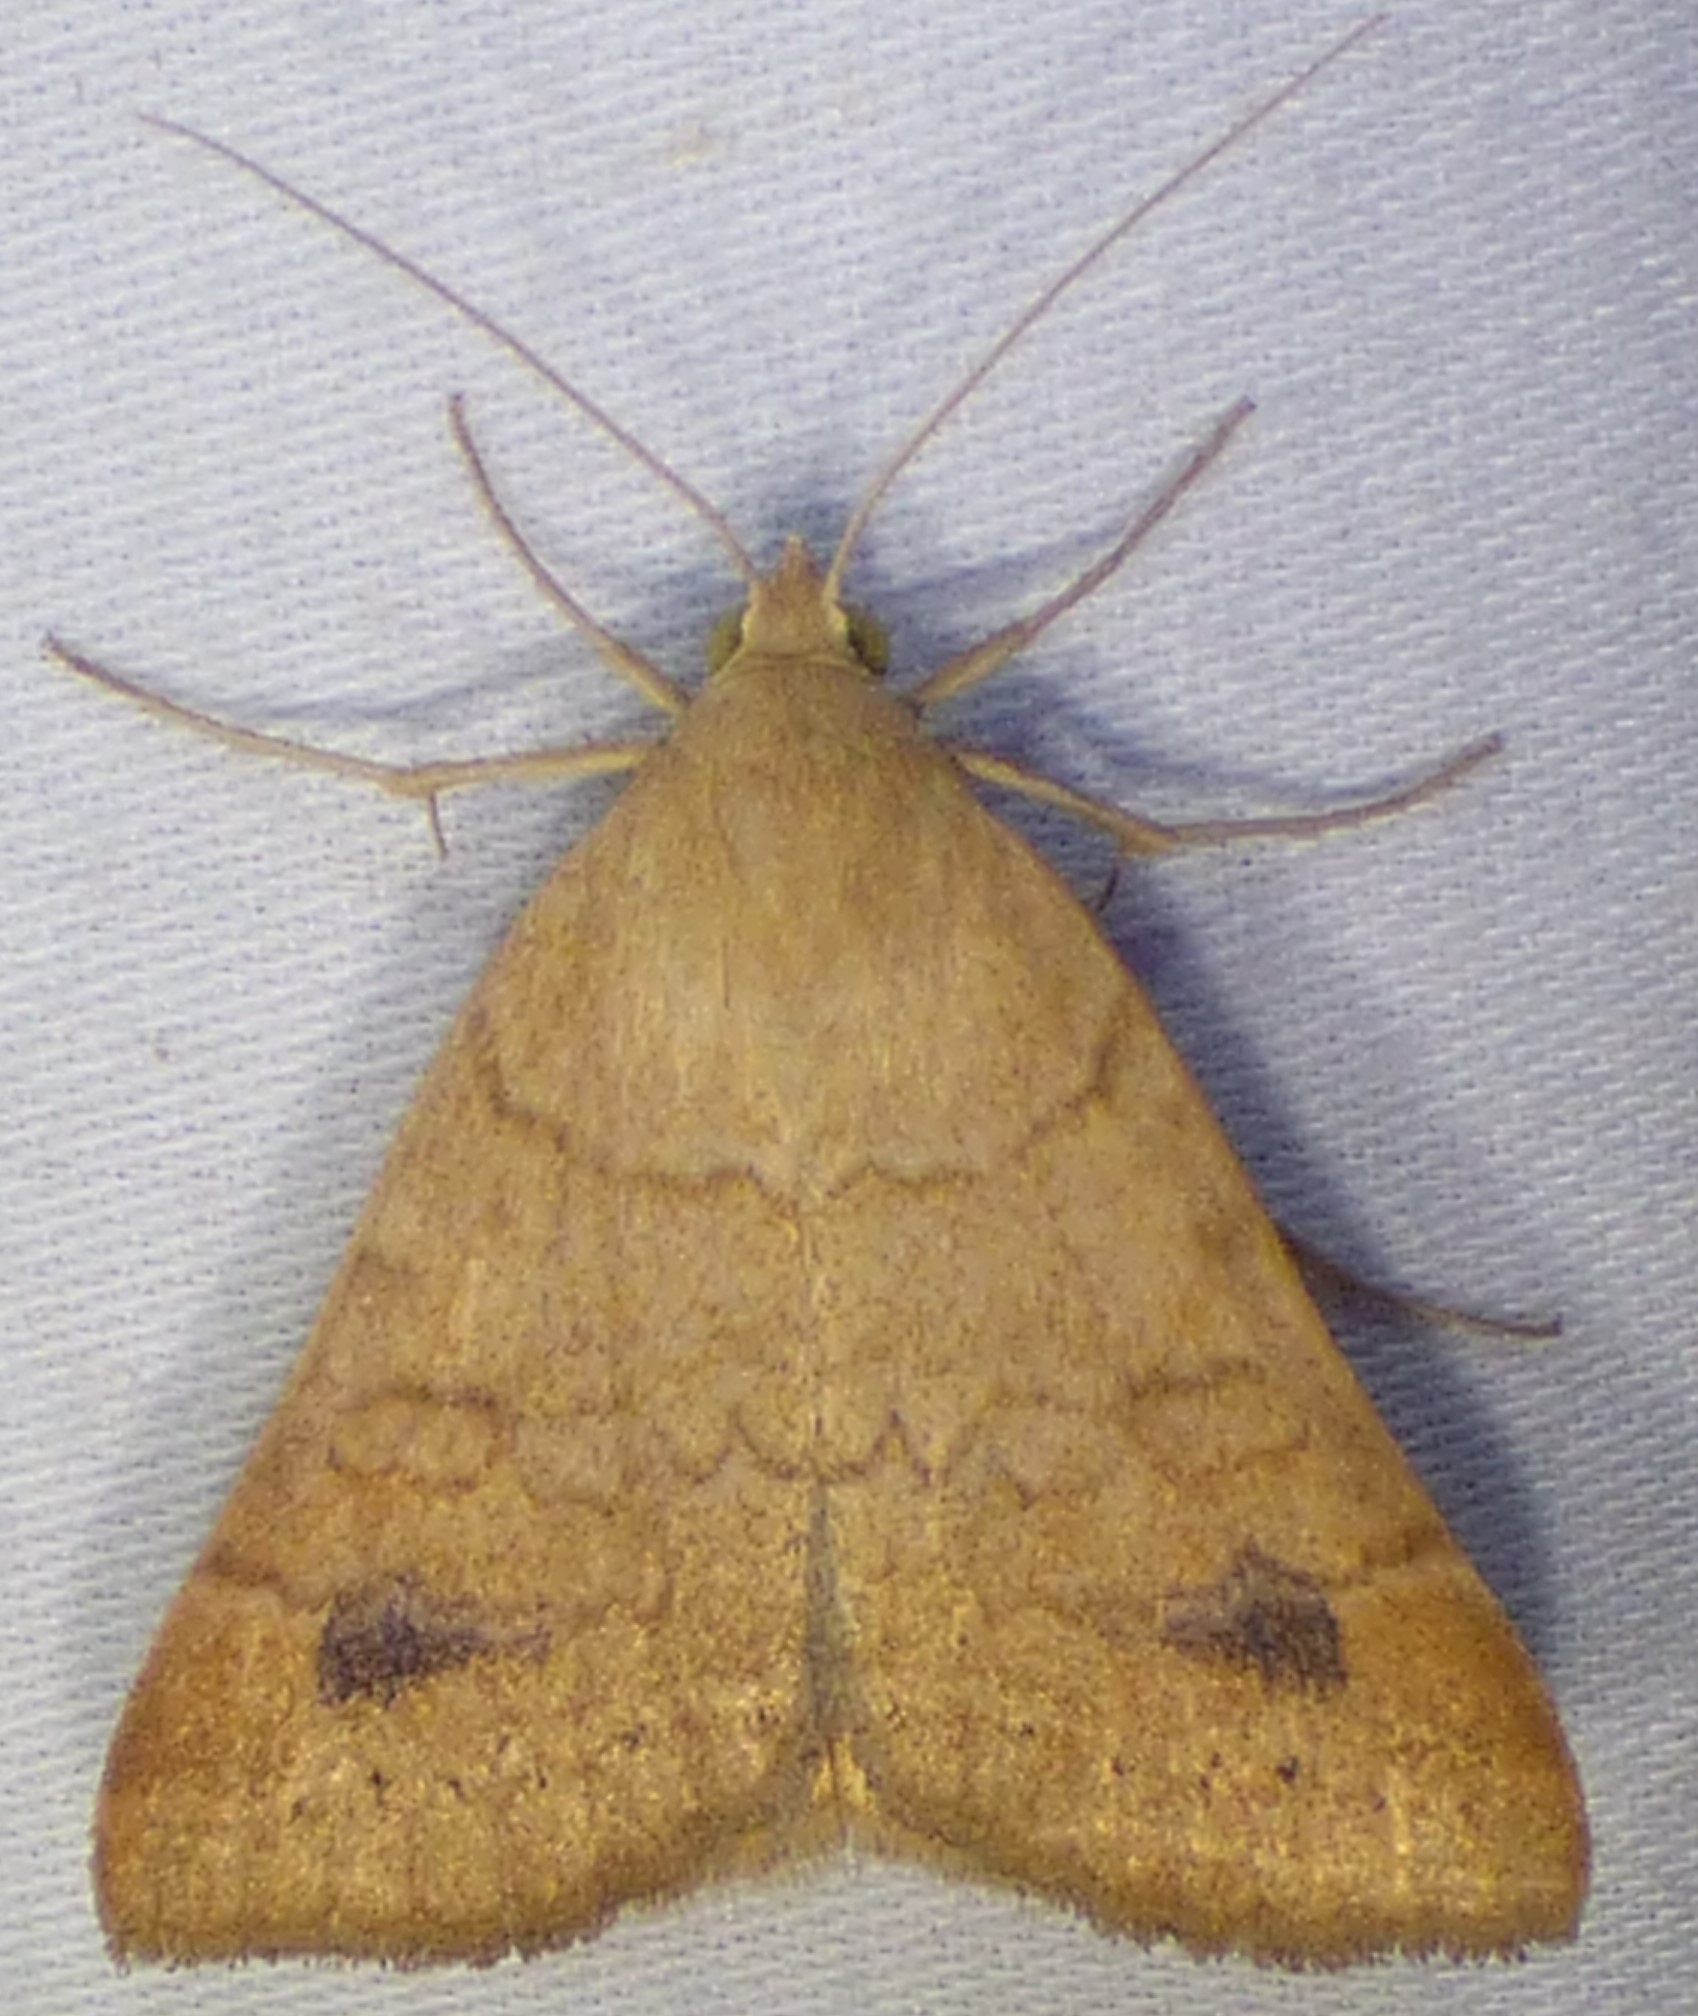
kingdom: Animalia
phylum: Arthropoda
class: Insecta
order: Lepidoptera
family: Erebidae
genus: Caenurgia
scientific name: Caenurgia chloropha
